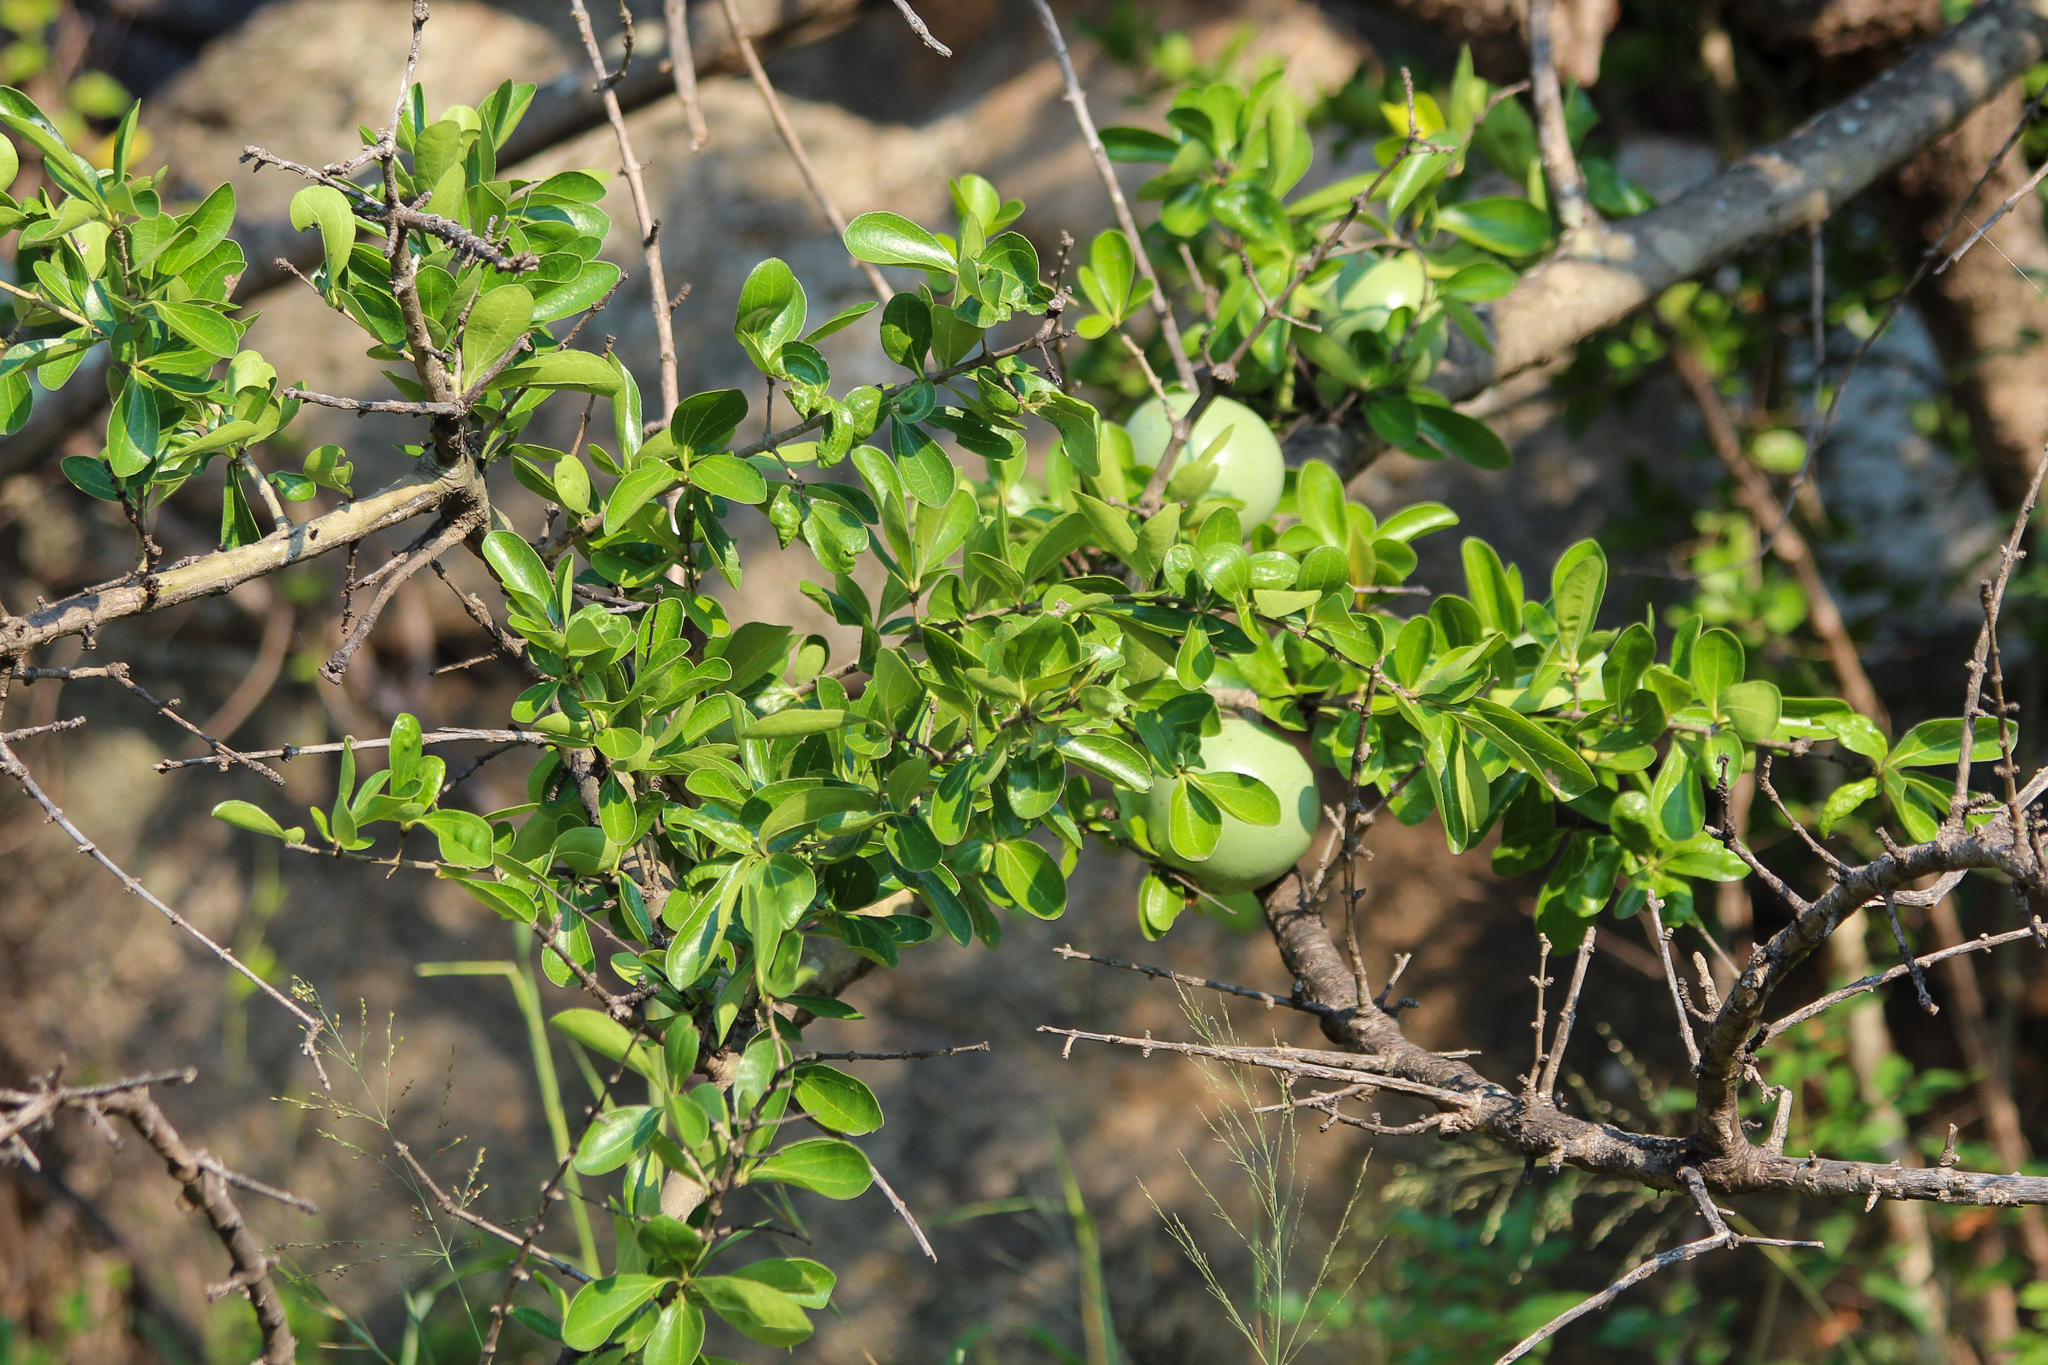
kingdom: Plantae
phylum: Tracheophyta
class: Magnoliopsida
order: Gentianales
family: Loganiaceae
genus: Strychnos
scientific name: Strychnos madagascariensis
